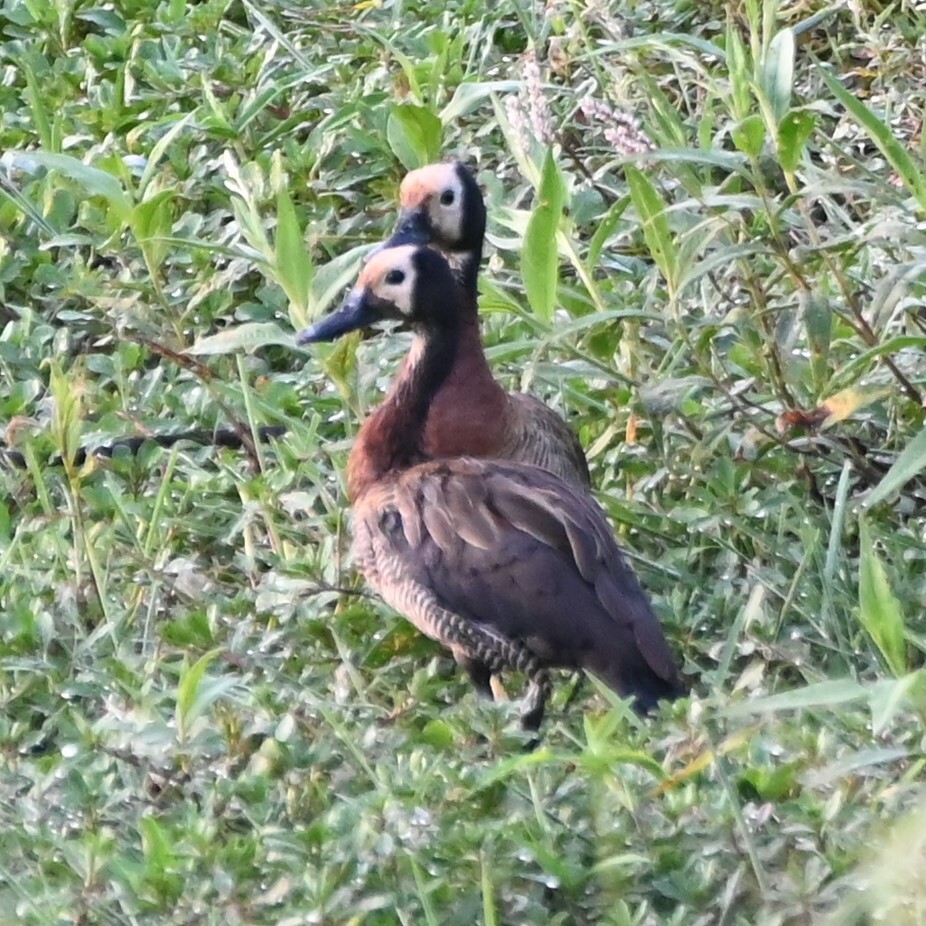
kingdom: Animalia
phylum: Chordata
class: Aves
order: Anseriformes
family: Anatidae
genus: Dendrocygna
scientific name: Dendrocygna viduata
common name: White-faced whistling duck
